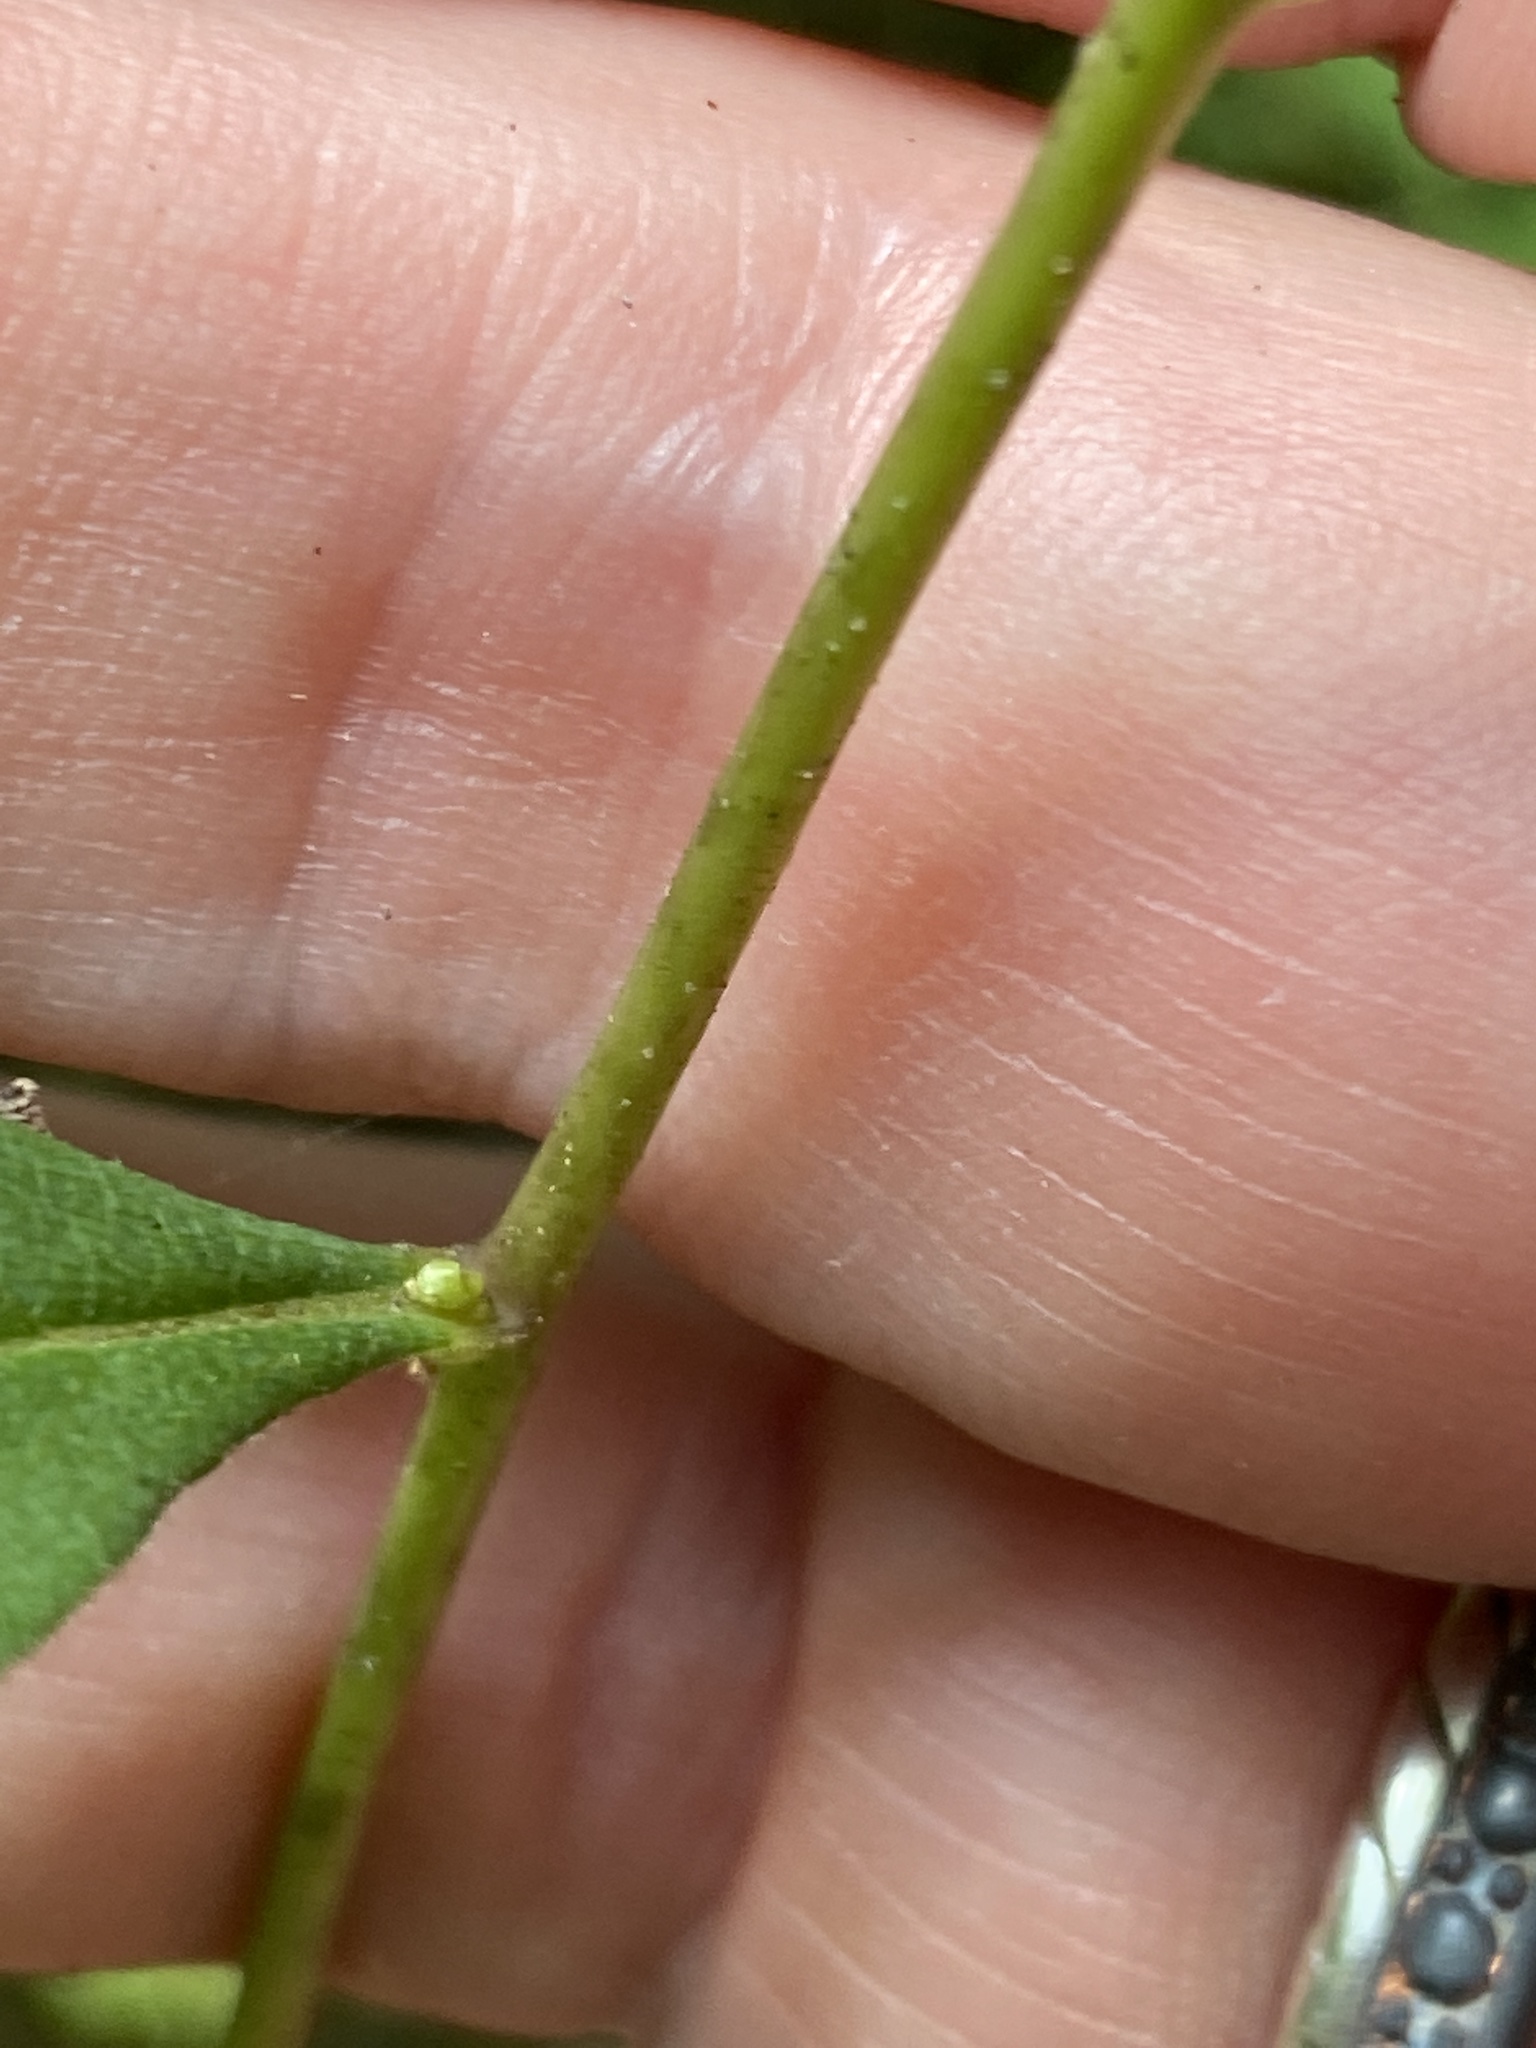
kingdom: Plantae
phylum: Tracheophyta
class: Magnoliopsida
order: Asterales
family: Asteraceae
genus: Doellingeria
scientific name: Doellingeria infirma
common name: Appalachian flat-top aster
